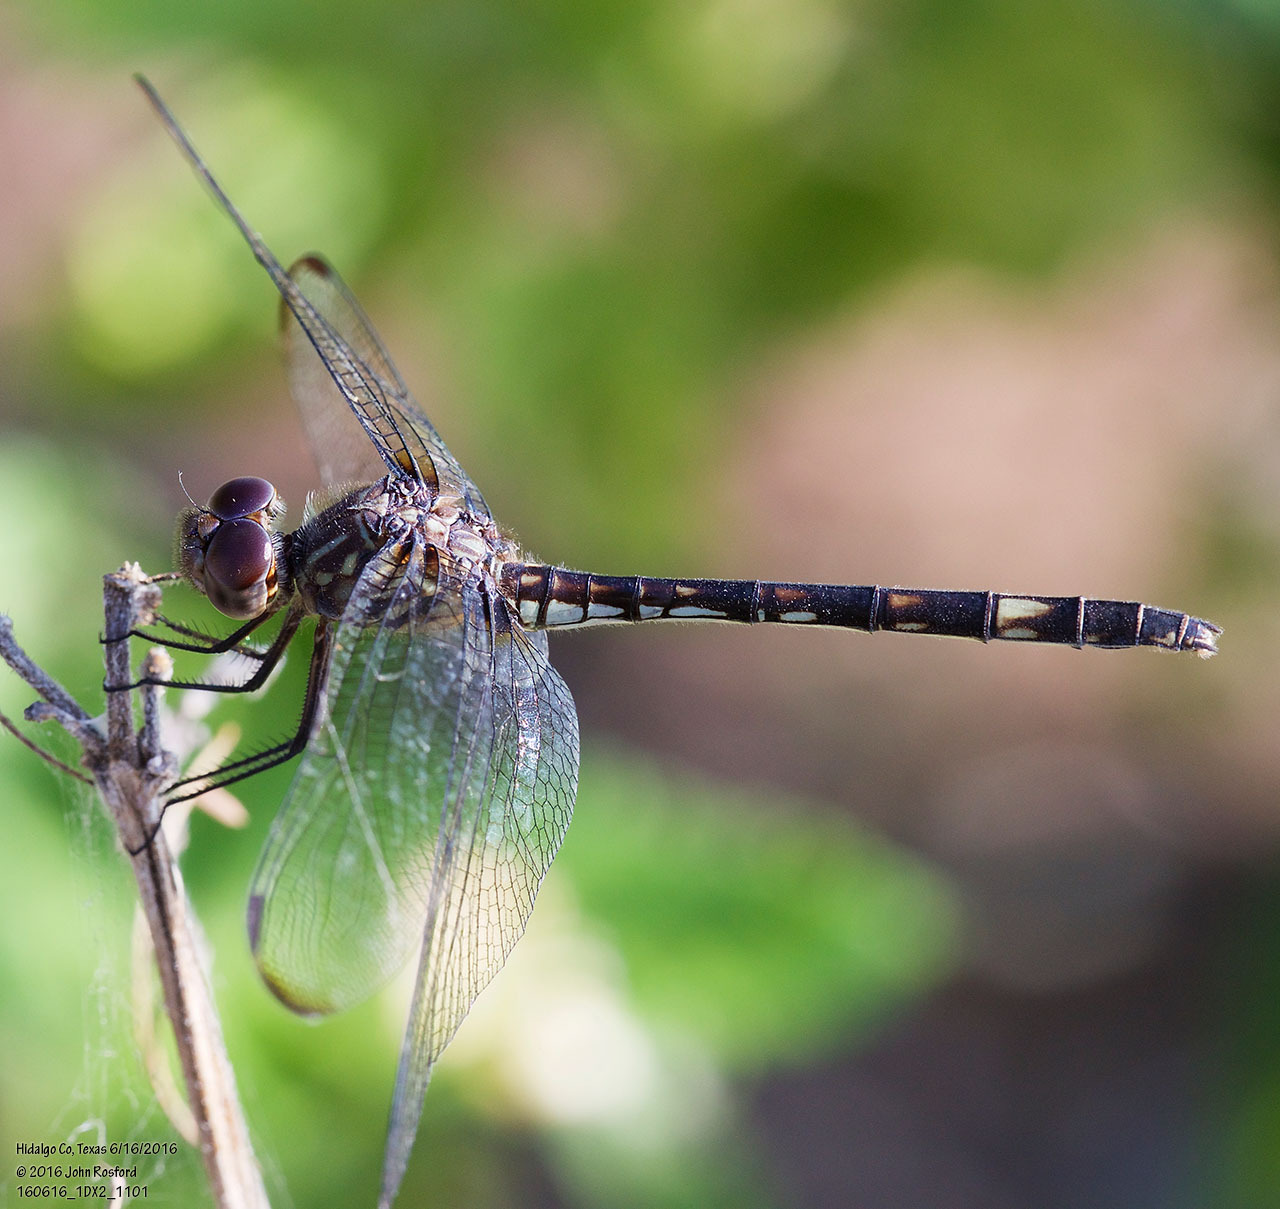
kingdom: Animalia
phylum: Arthropoda
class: Insecta
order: Odonata
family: Libellulidae
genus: Dythemis
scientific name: Dythemis nigrescens
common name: Black setwing
